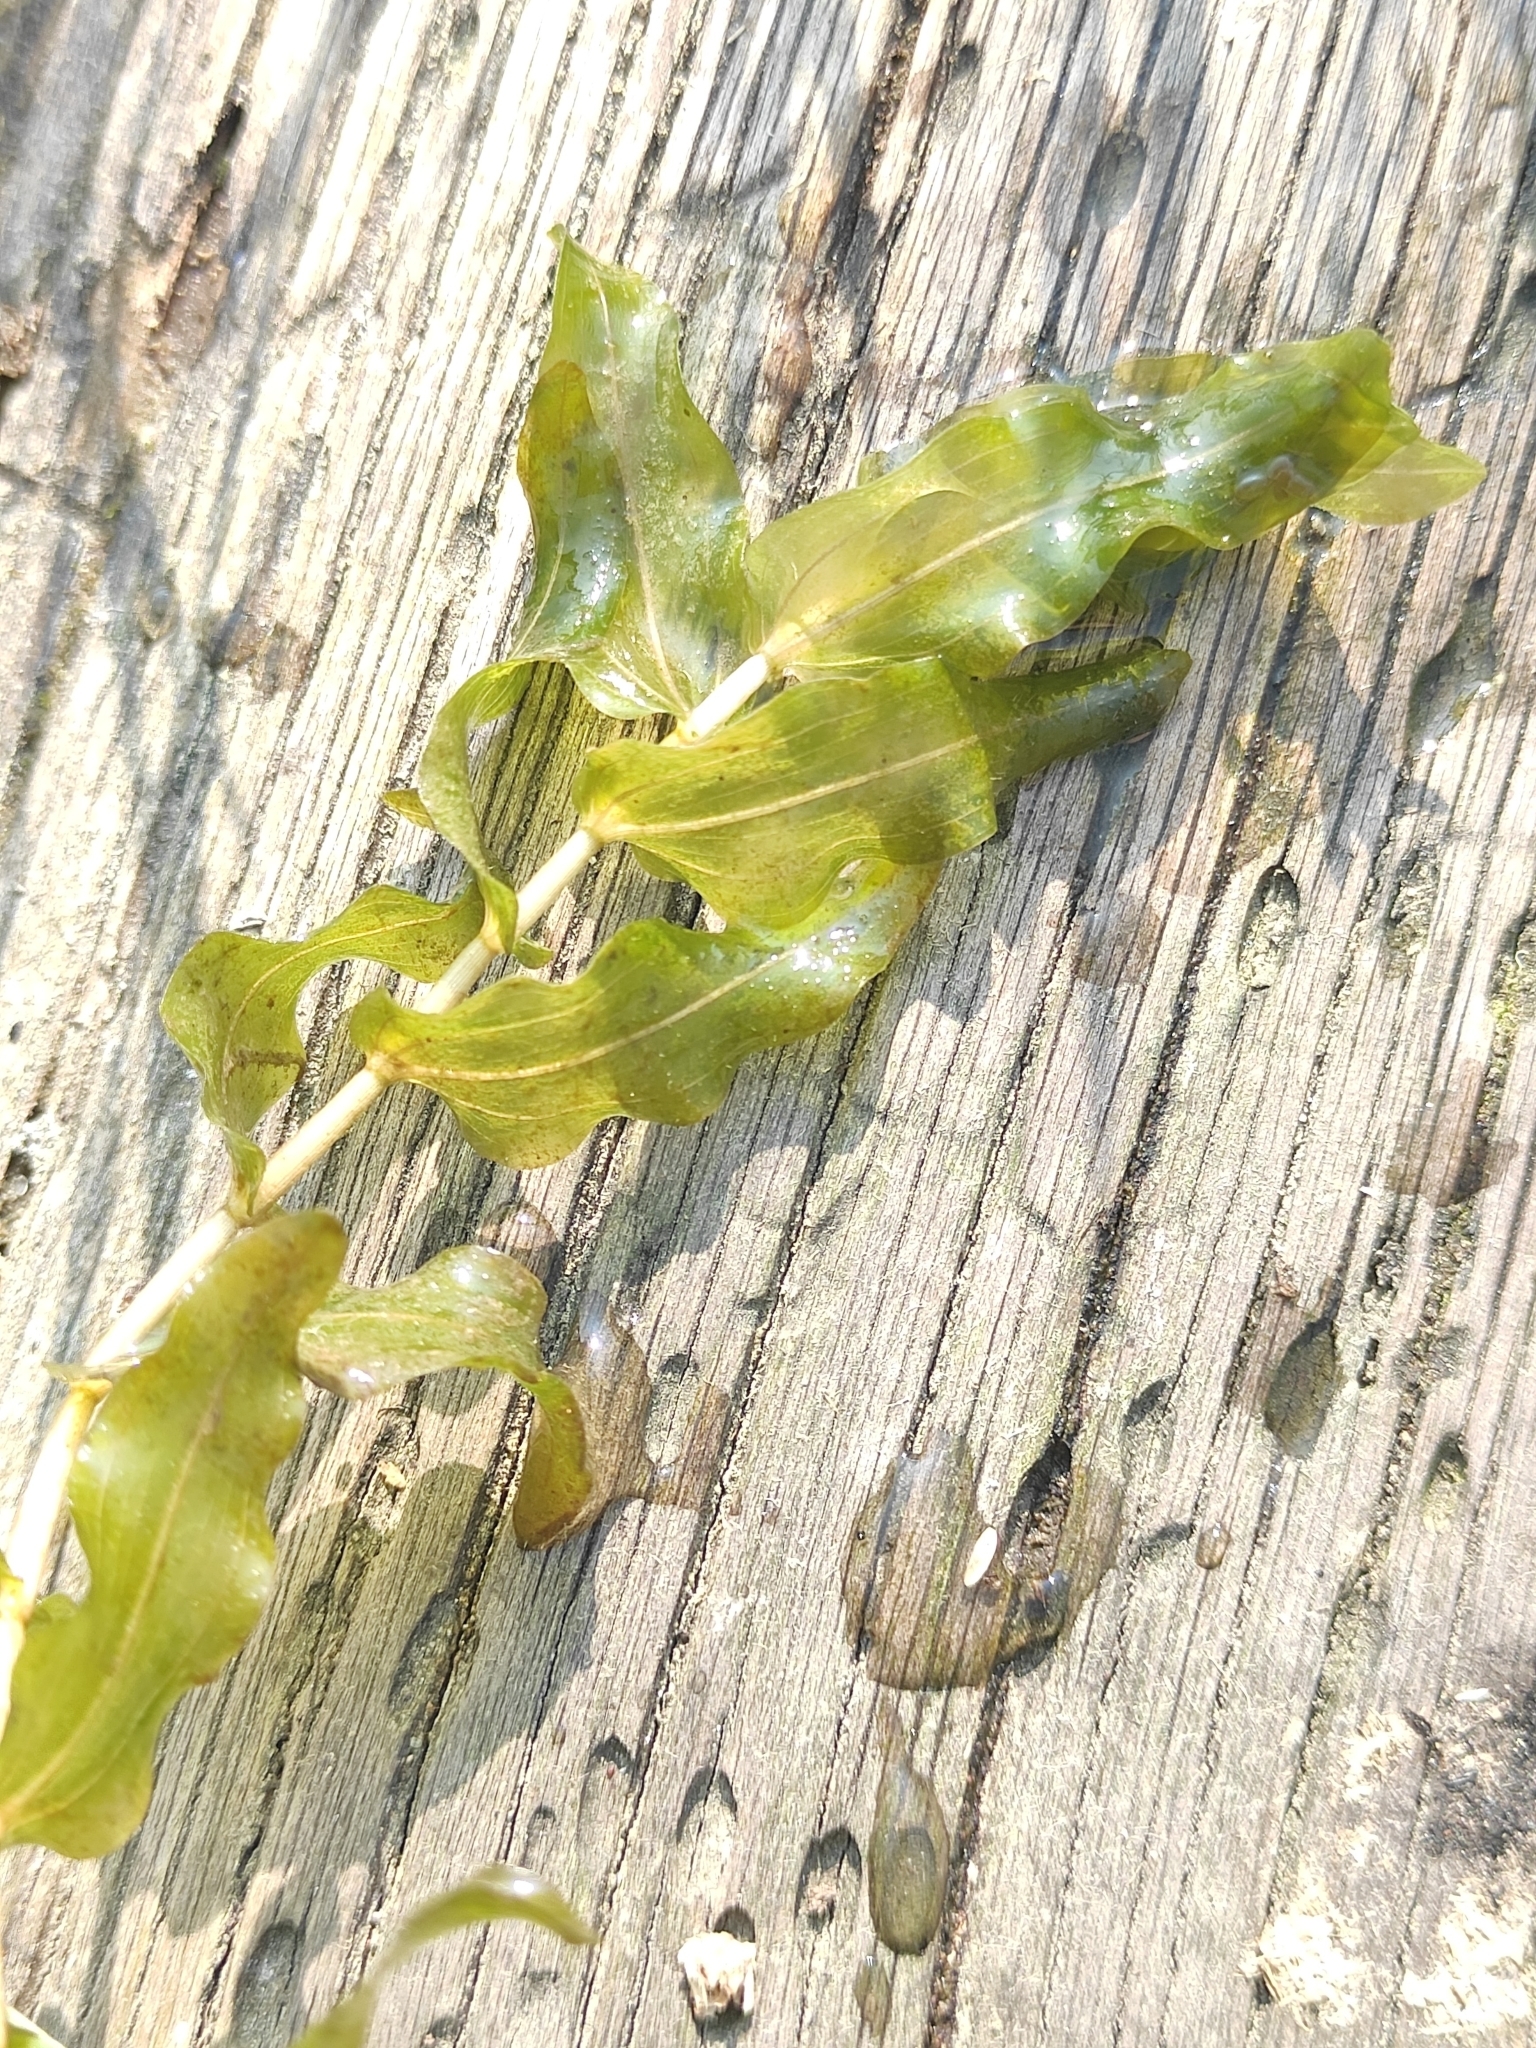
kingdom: Plantae
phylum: Tracheophyta
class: Liliopsida
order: Alismatales
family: Potamogetonaceae
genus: Potamogeton
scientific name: Potamogeton perfoliatus
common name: Perfoliate pondweed
